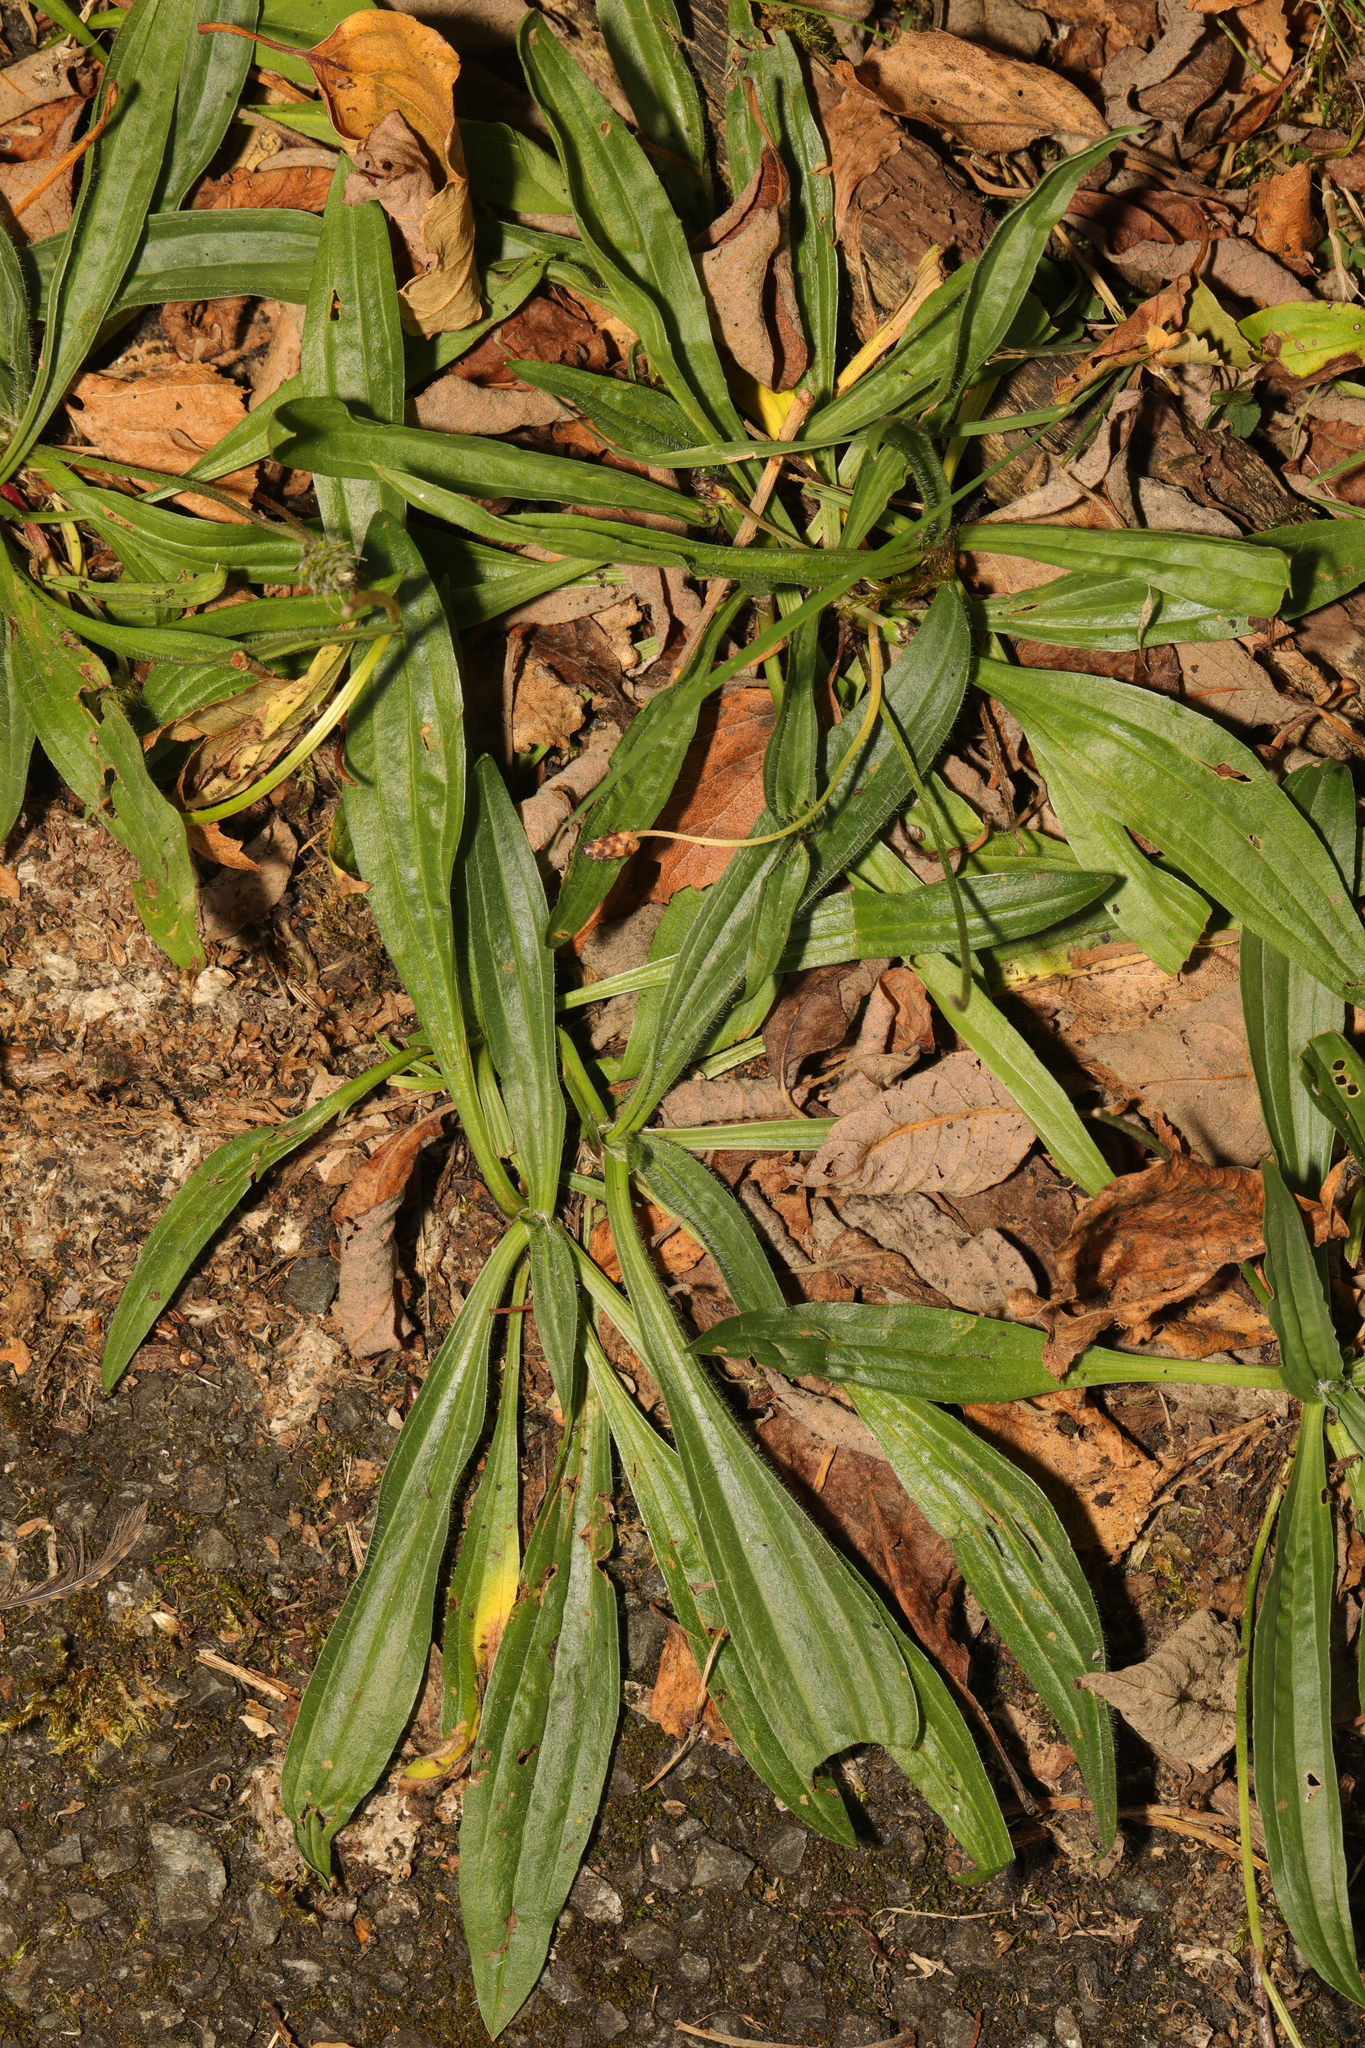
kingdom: Plantae
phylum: Tracheophyta
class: Magnoliopsida
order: Lamiales
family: Plantaginaceae
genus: Plantago
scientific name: Plantago lanceolata
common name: Ribwort plantain
